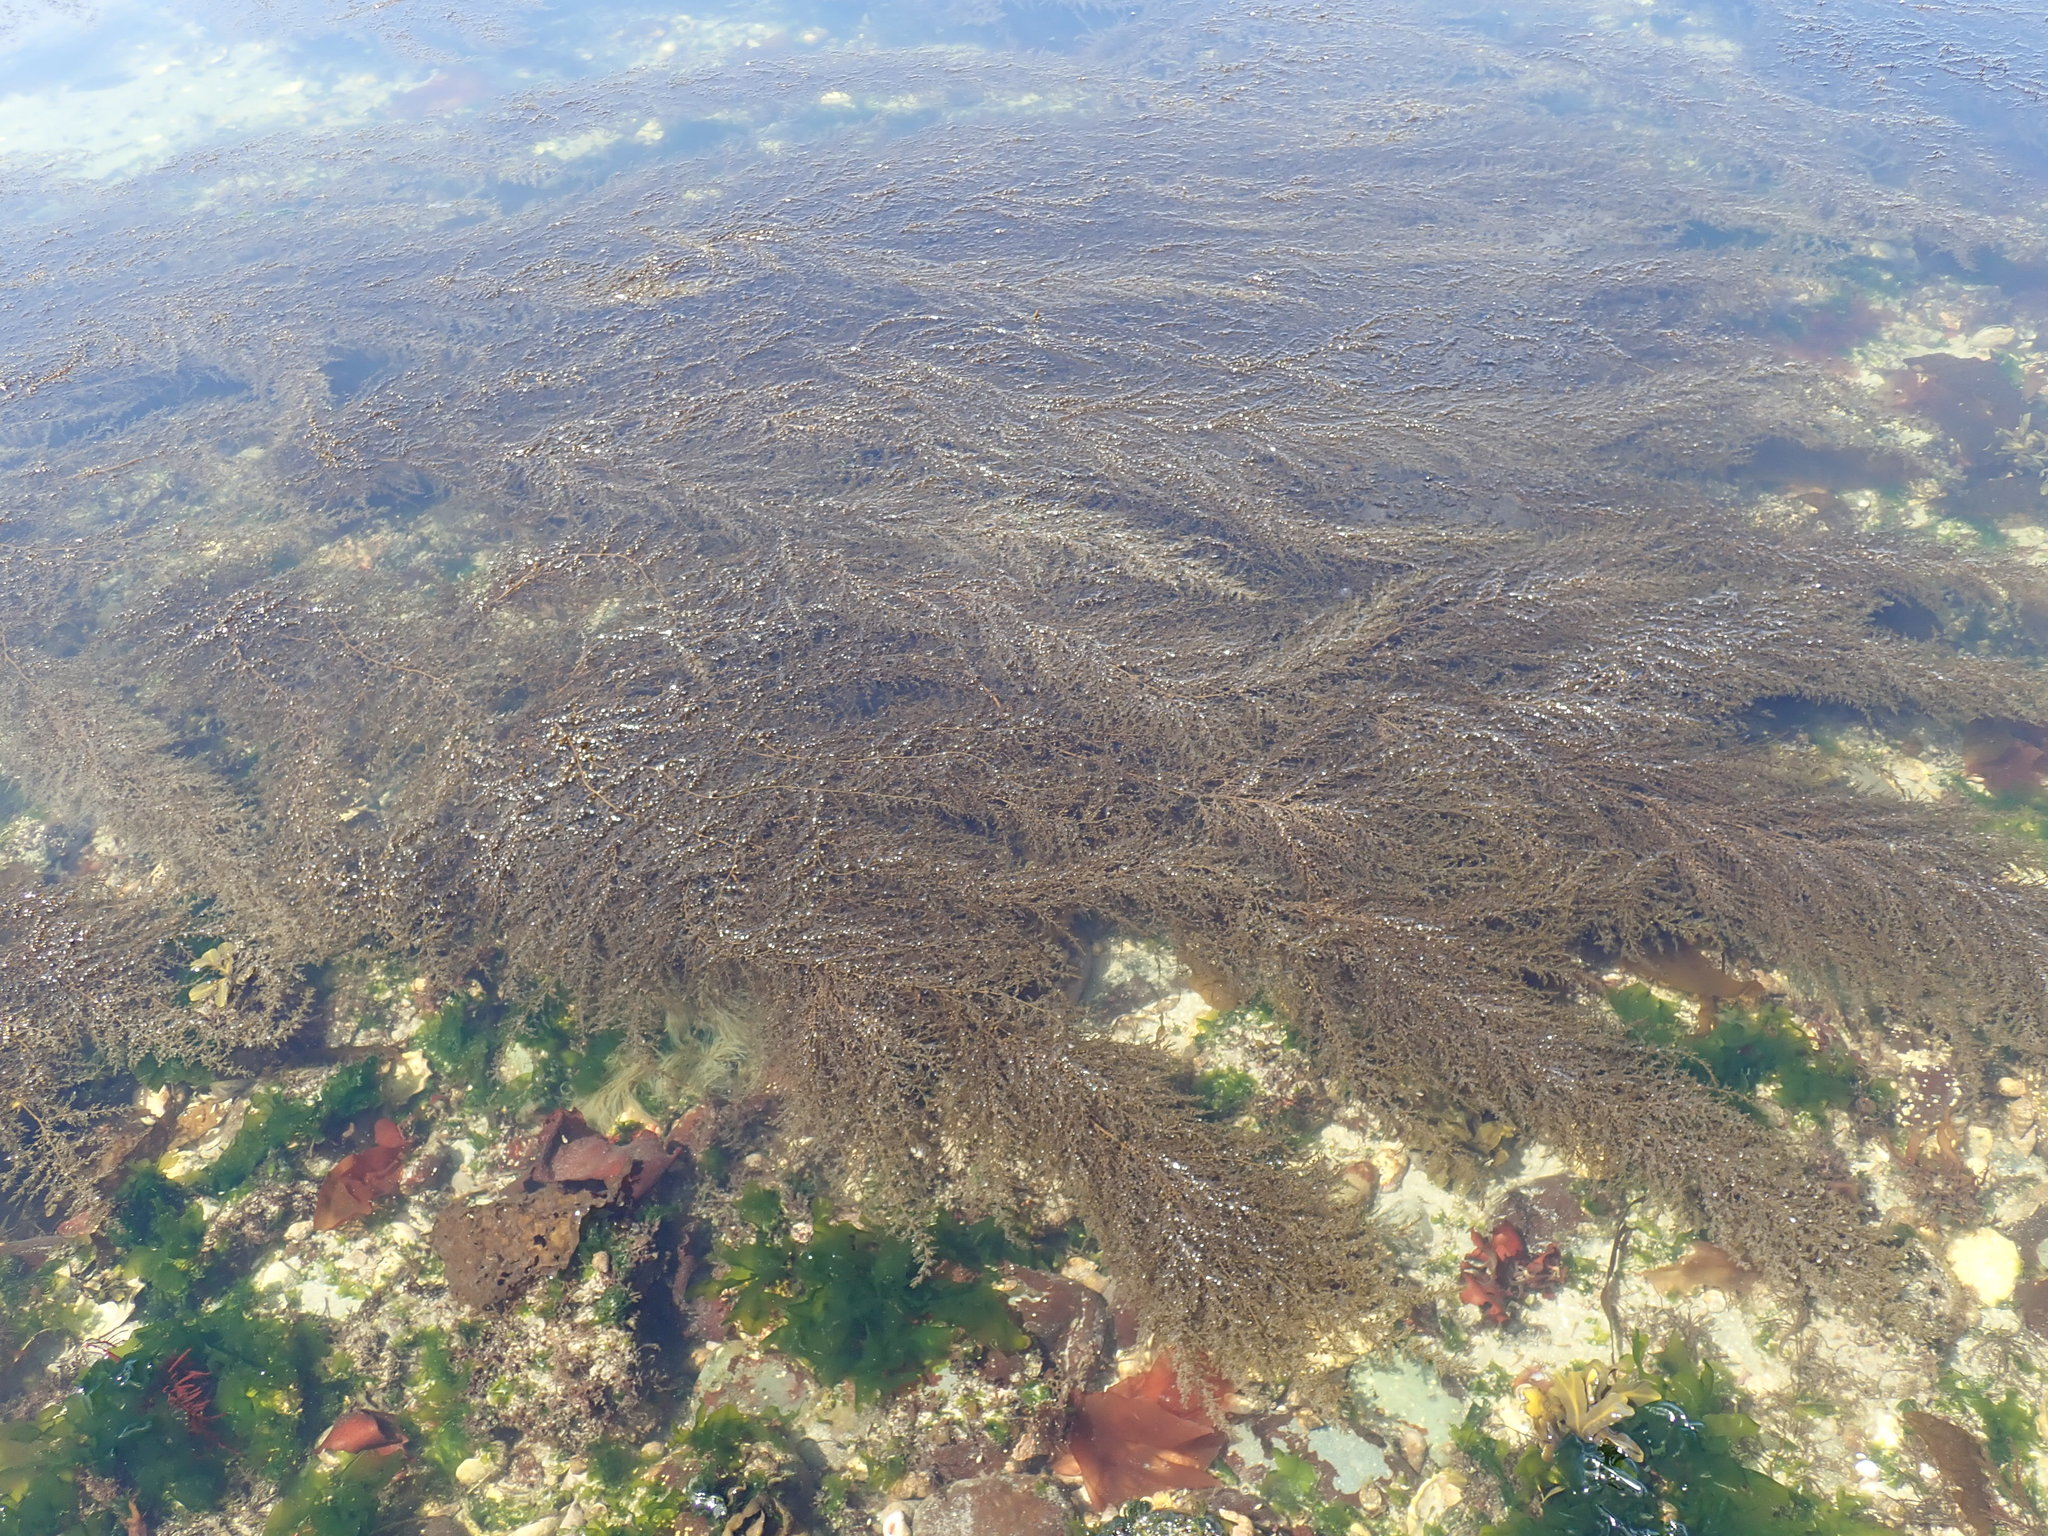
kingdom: Chromista
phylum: Ochrophyta
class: Phaeophyceae
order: Fucales
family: Sargassaceae
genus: Sargassum
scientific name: Sargassum muticum
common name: Japweed
